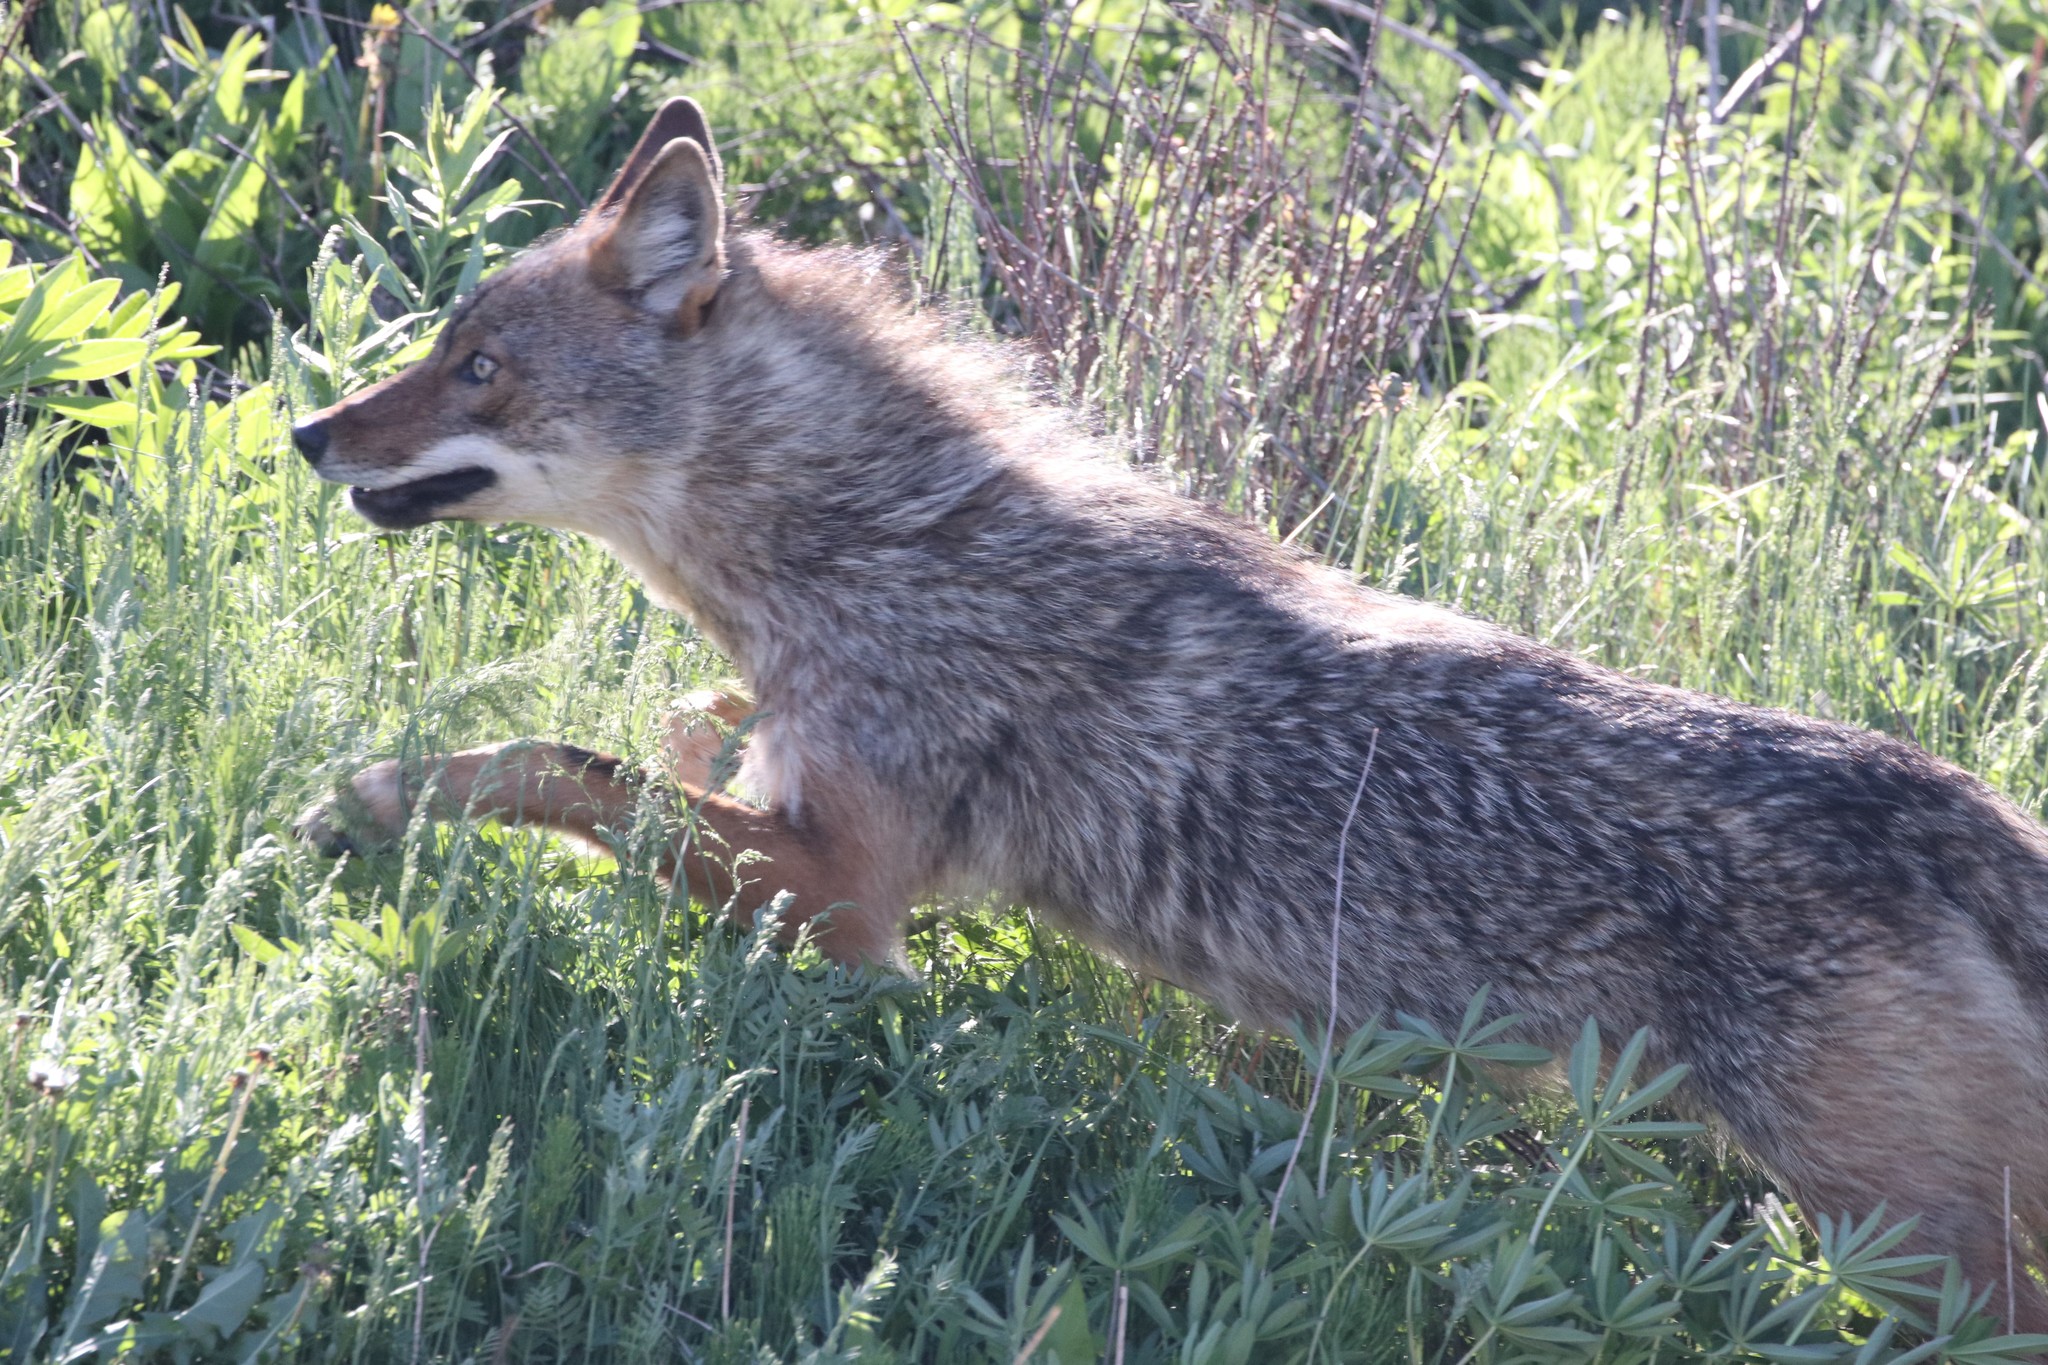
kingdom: Animalia
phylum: Chordata
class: Mammalia
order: Carnivora
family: Canidae
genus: Canis
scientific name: Canis latrans
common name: Coyote
